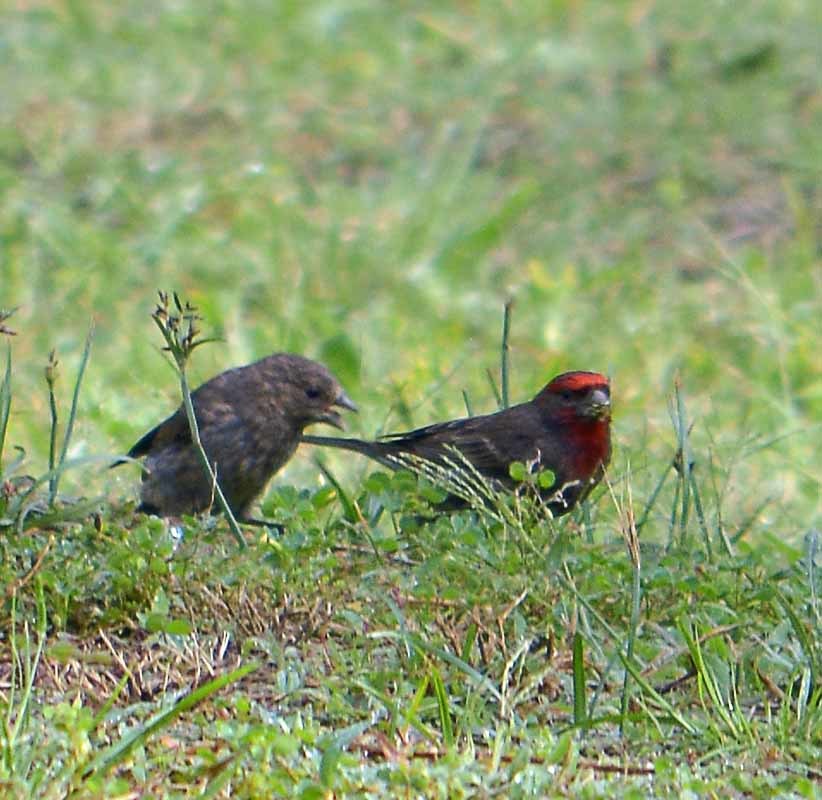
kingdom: Animalia
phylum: Chordata
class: Aves
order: Passeriformes
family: Fringillidae
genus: Haemorhous
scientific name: Haemorhous mexicanus
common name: House finch
